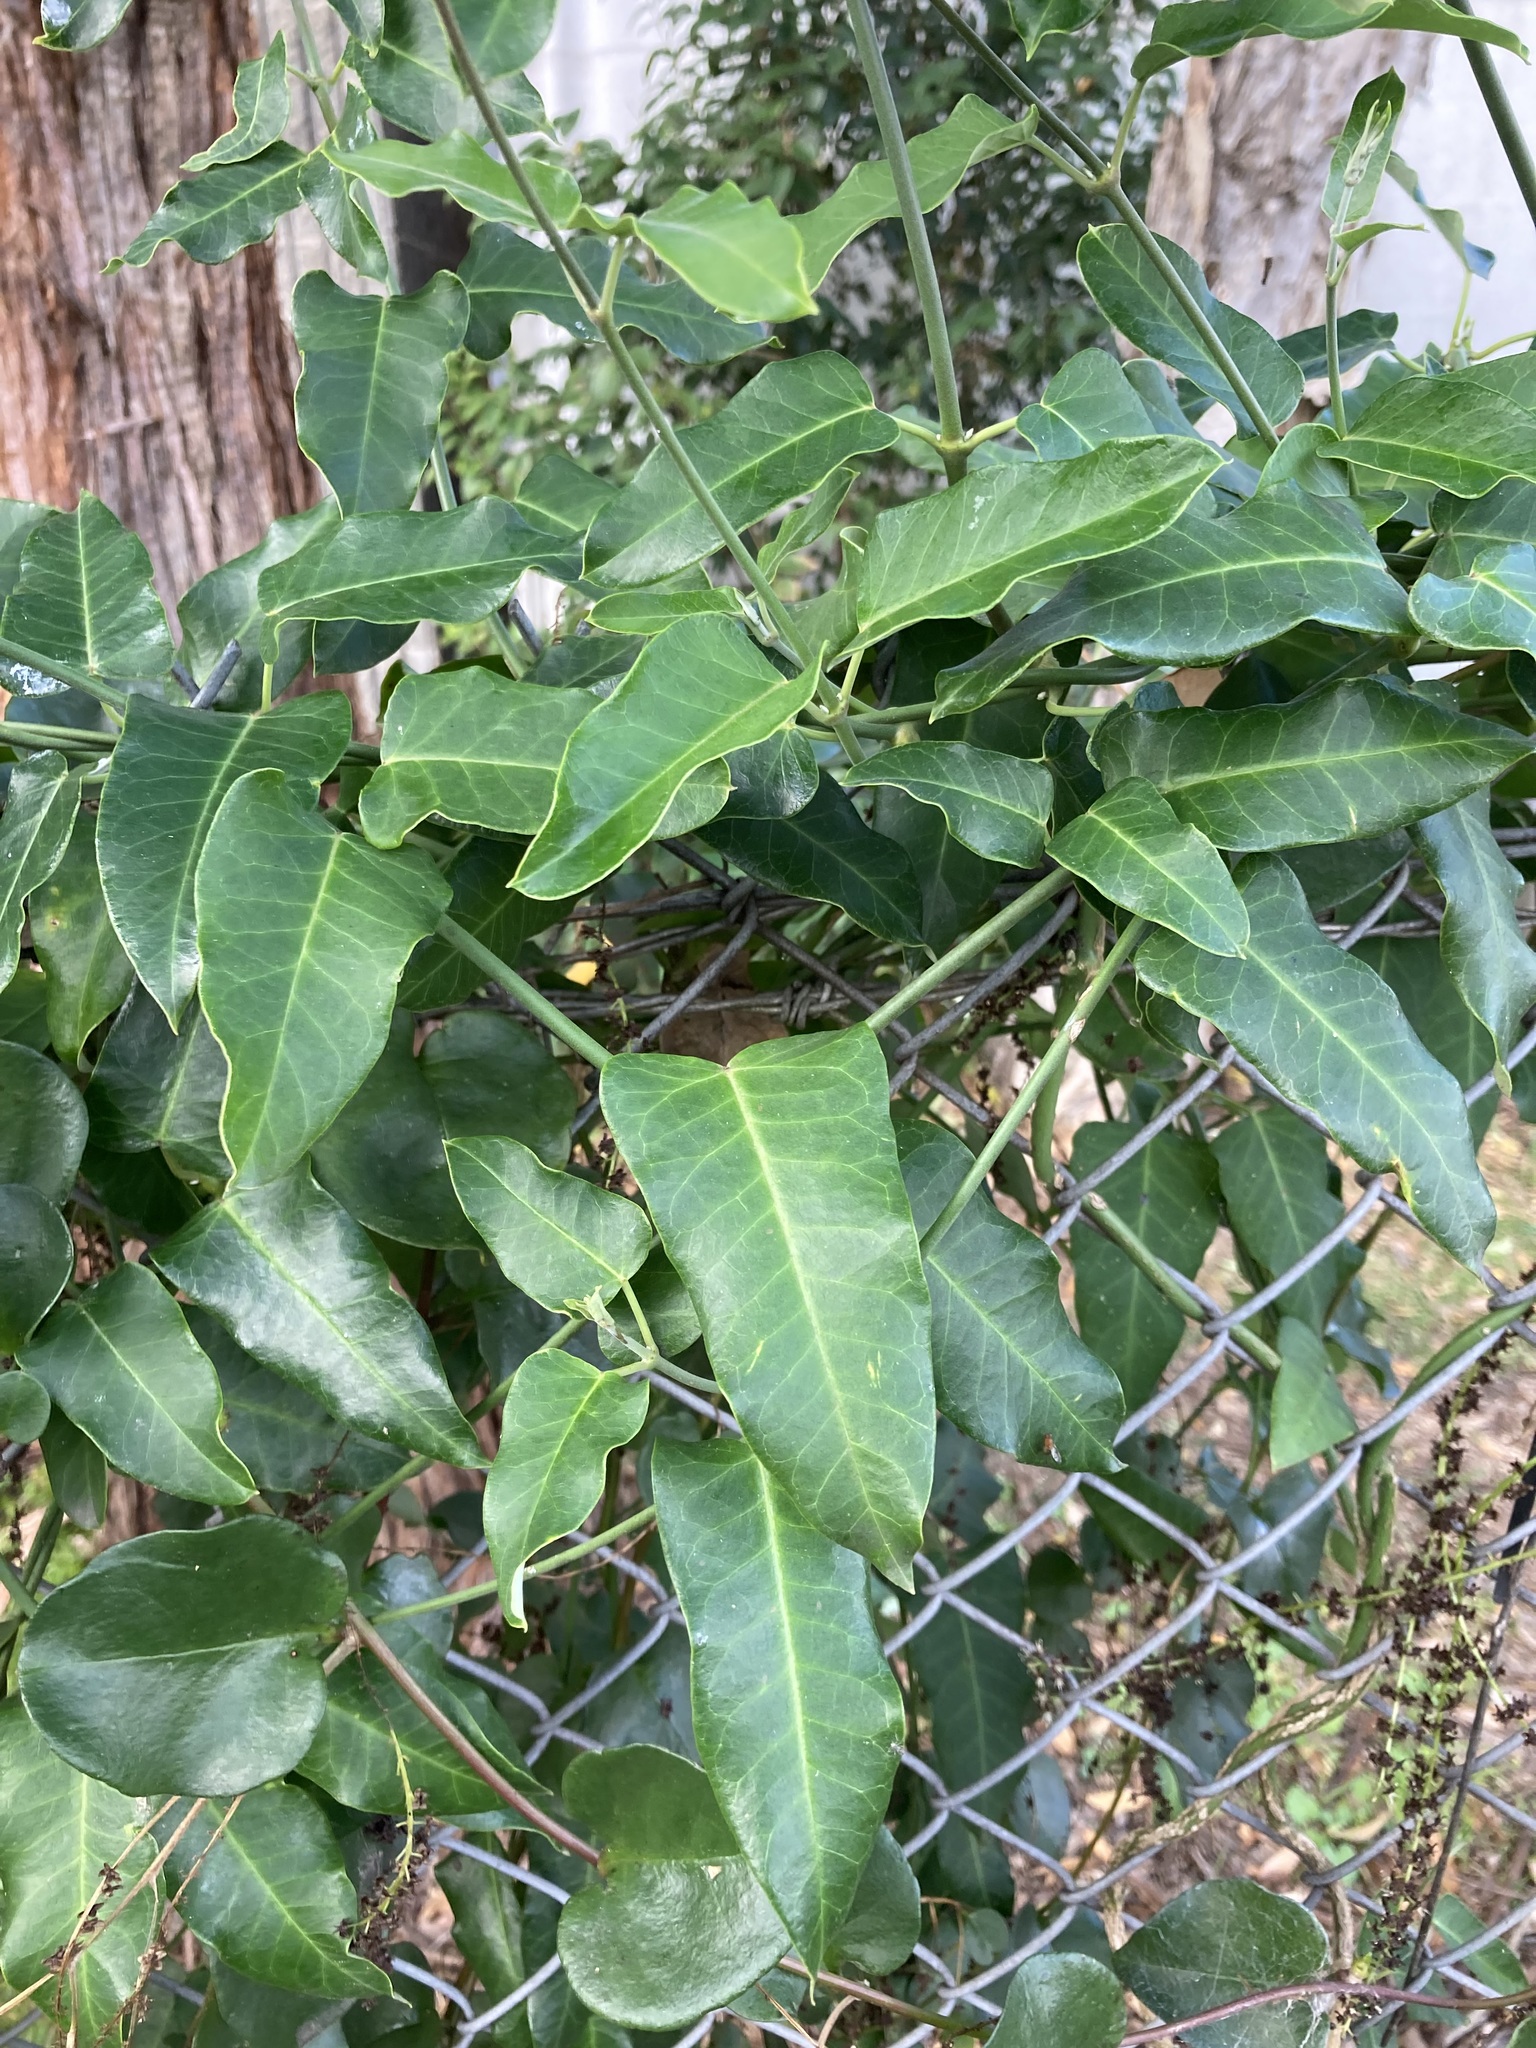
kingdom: Plantae
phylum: Tracheophyta
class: Magnoliopsida
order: Gentianales
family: Apocynaceae
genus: Araujia
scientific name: Araujia sericifera
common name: White bladderflower
